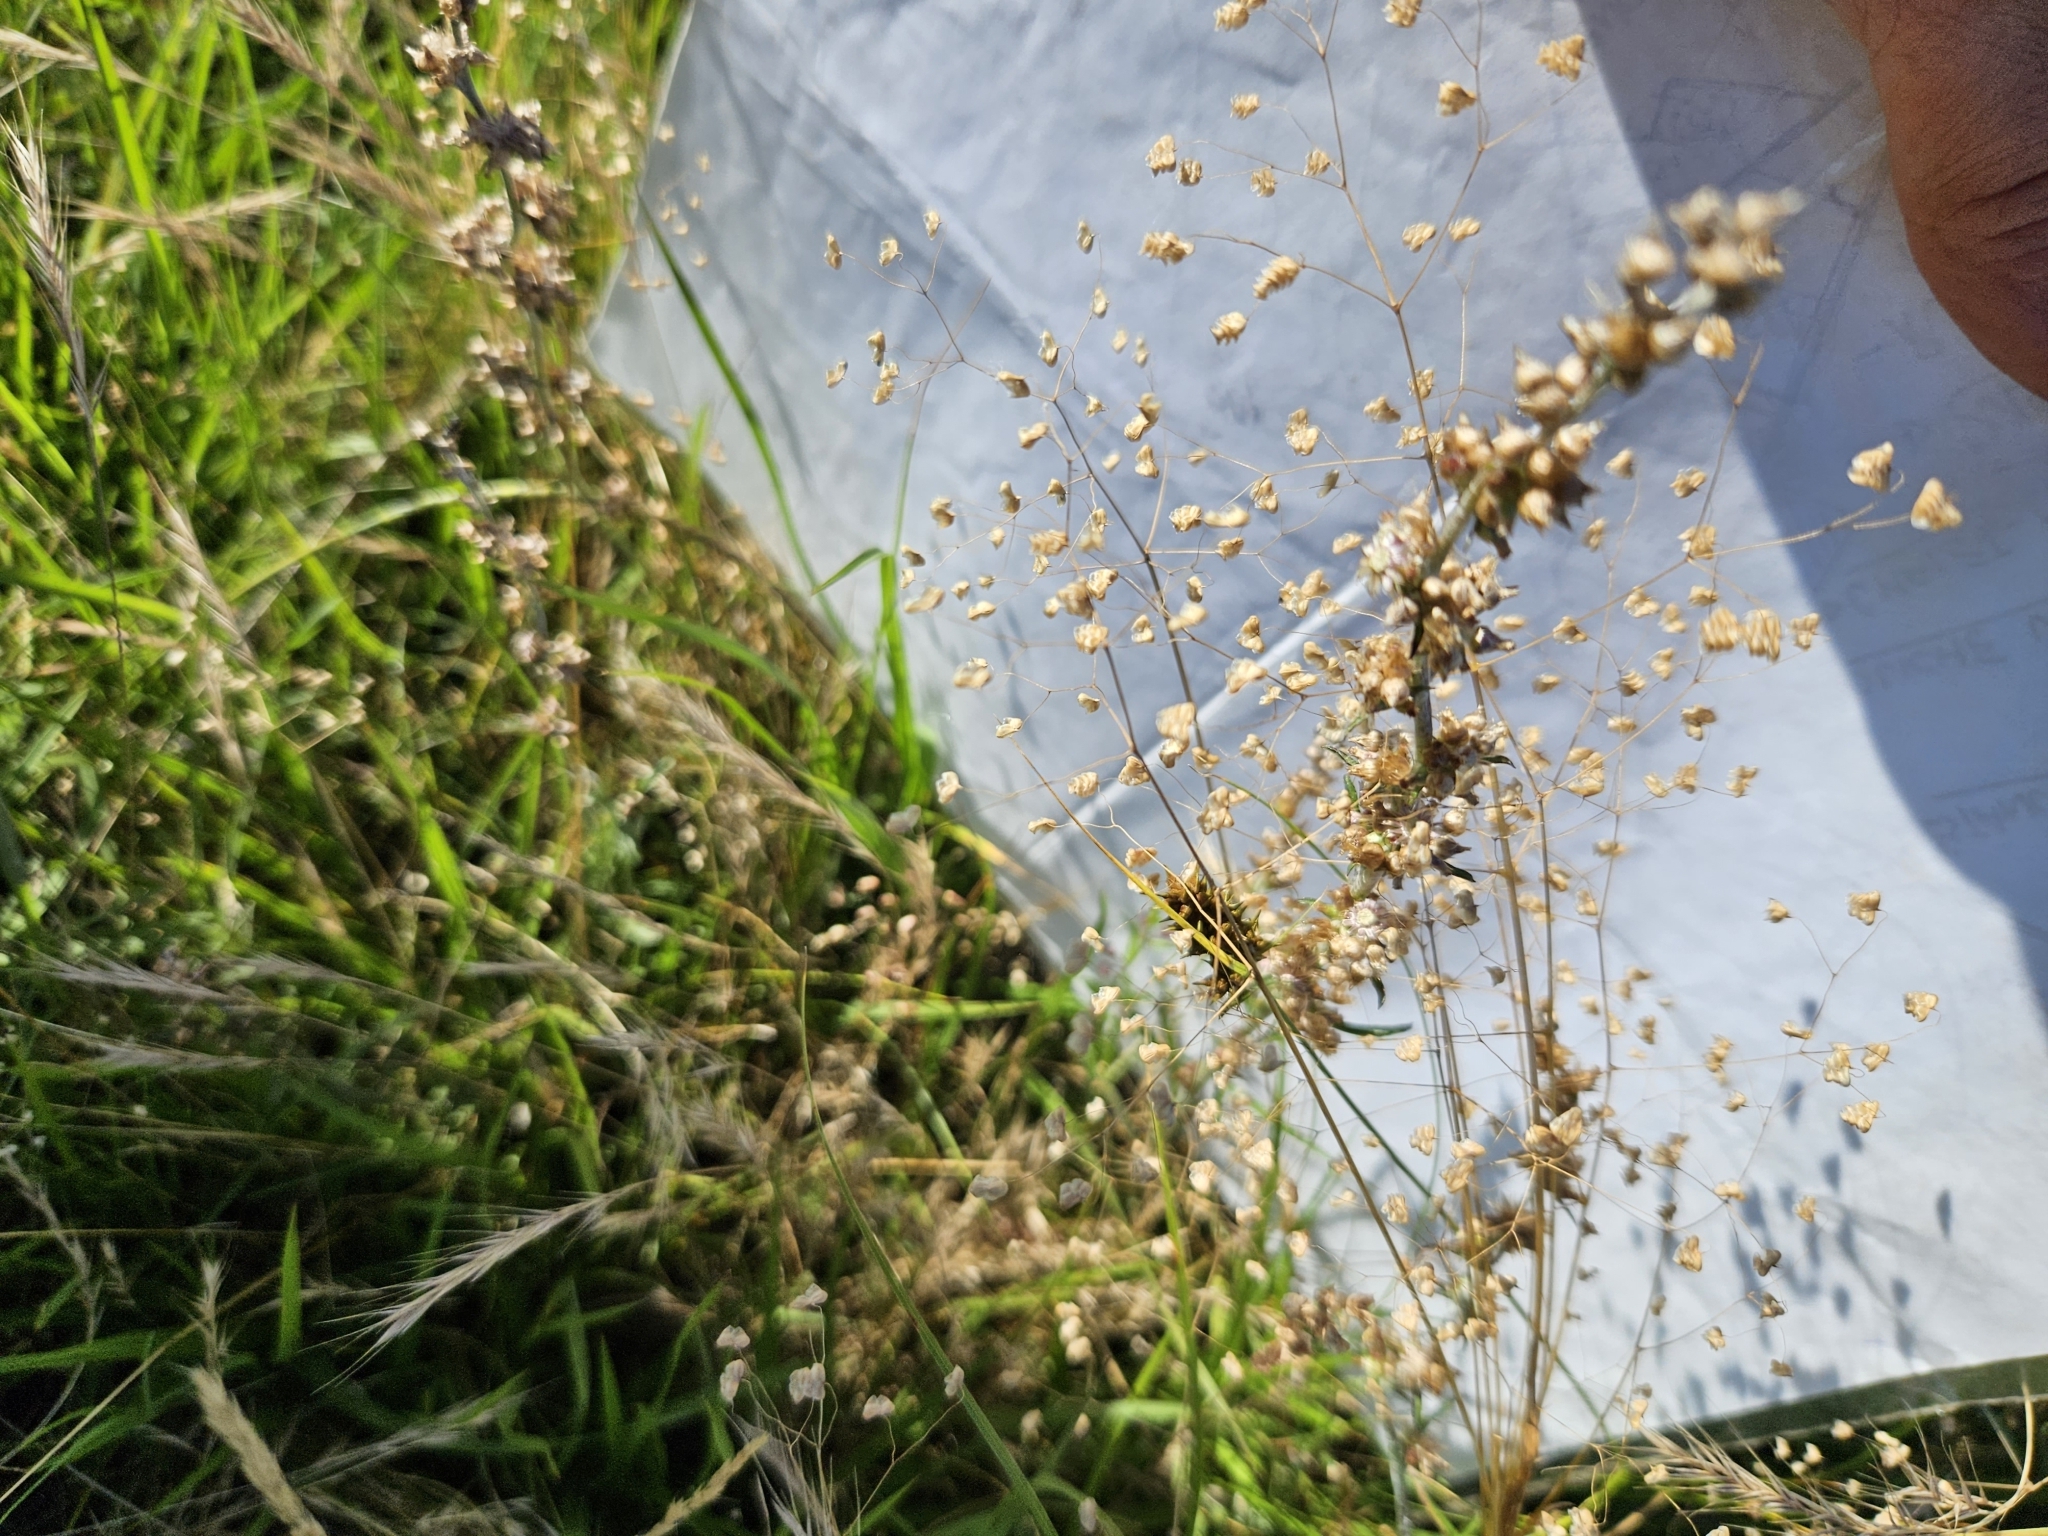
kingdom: Plantae
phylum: Tracheophyta
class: Liliopsida
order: Poales
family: Poaceae
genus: Briza
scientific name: Briza minor
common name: Lesser quaking-grass
